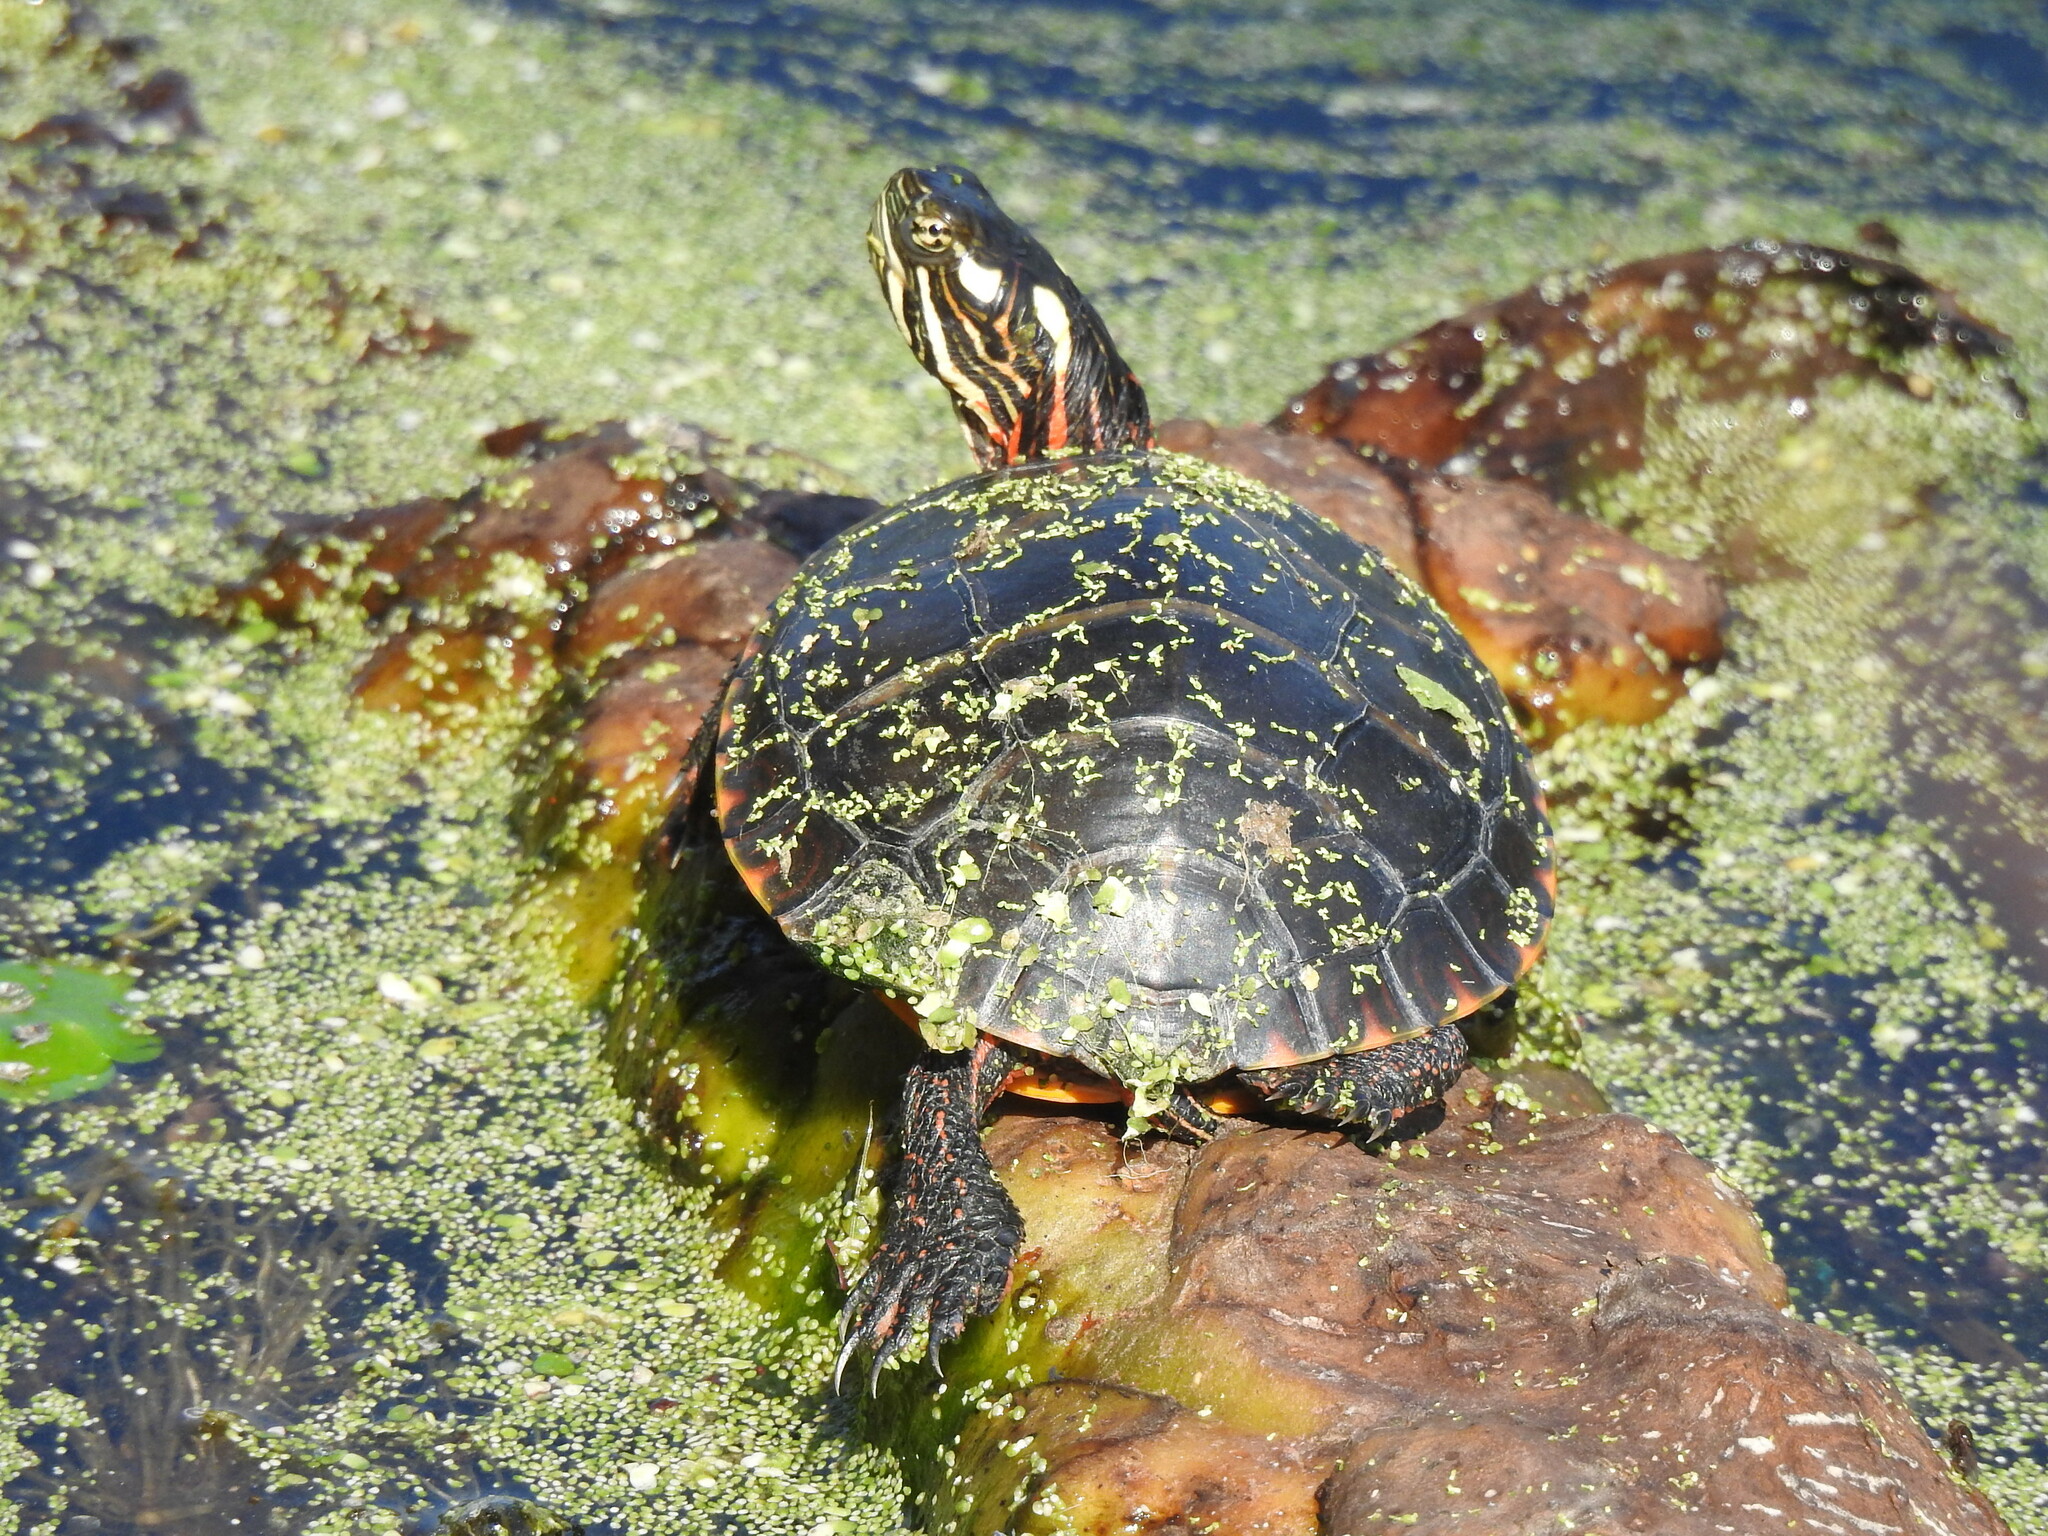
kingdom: Animalia
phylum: Chordata
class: Testudines
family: Emydidae
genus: Chrysemys
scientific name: Chrysemys picta
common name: Painted turtle
